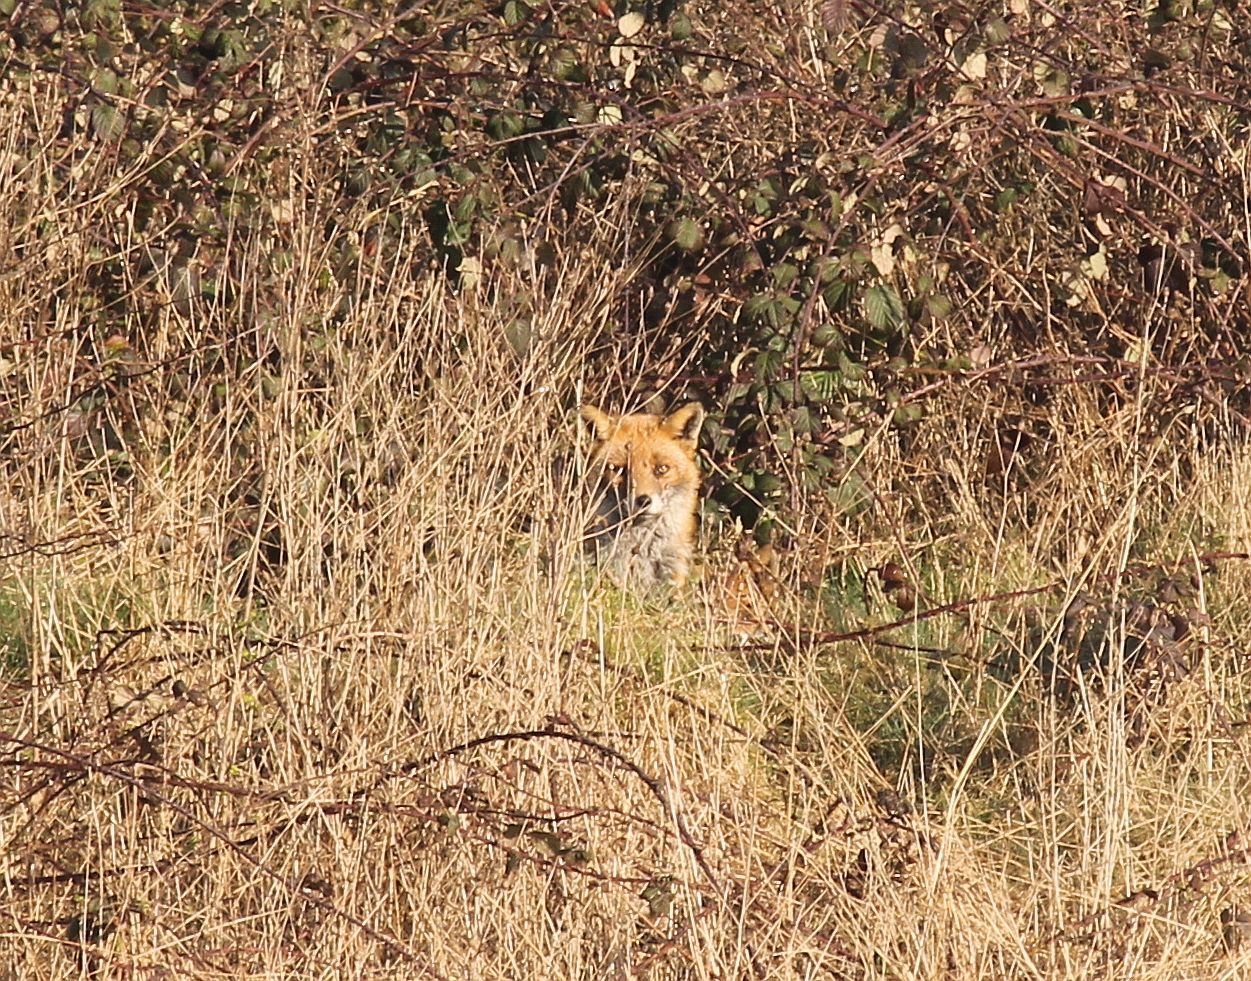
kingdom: Animalia
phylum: Chordata
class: Mammalia
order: Carnivora
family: Canidae
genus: Vulpes
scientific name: Vulpes vulpes
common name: Red fox
